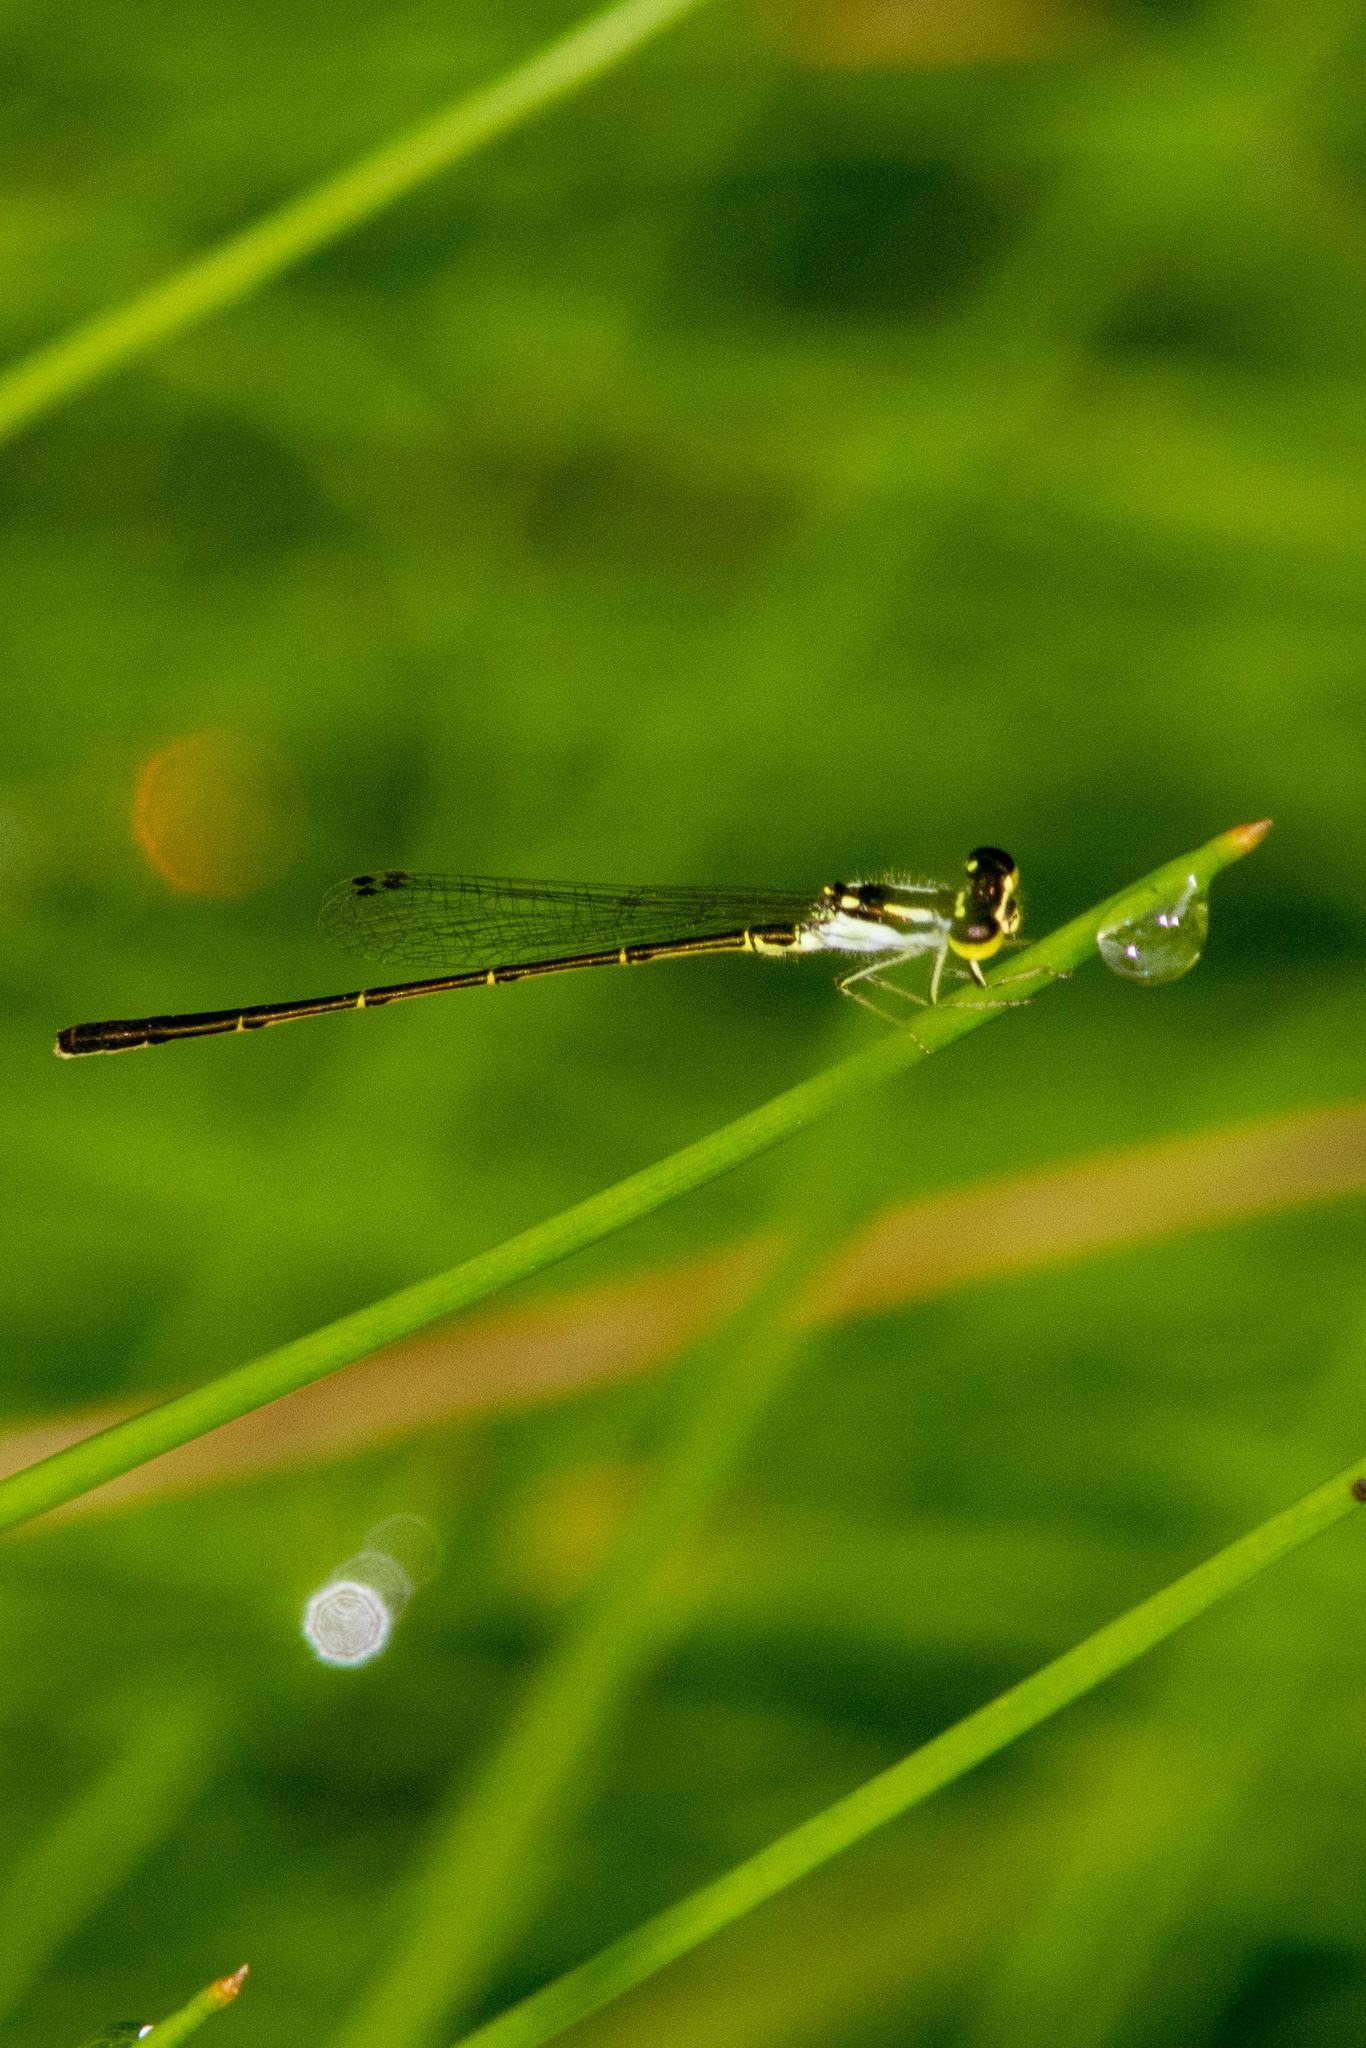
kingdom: Animalia
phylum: Arthropoda
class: Insecta
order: Odonata
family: Coenagrionidae
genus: Ischnura
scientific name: Ischnura posita
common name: Fragile forktail
